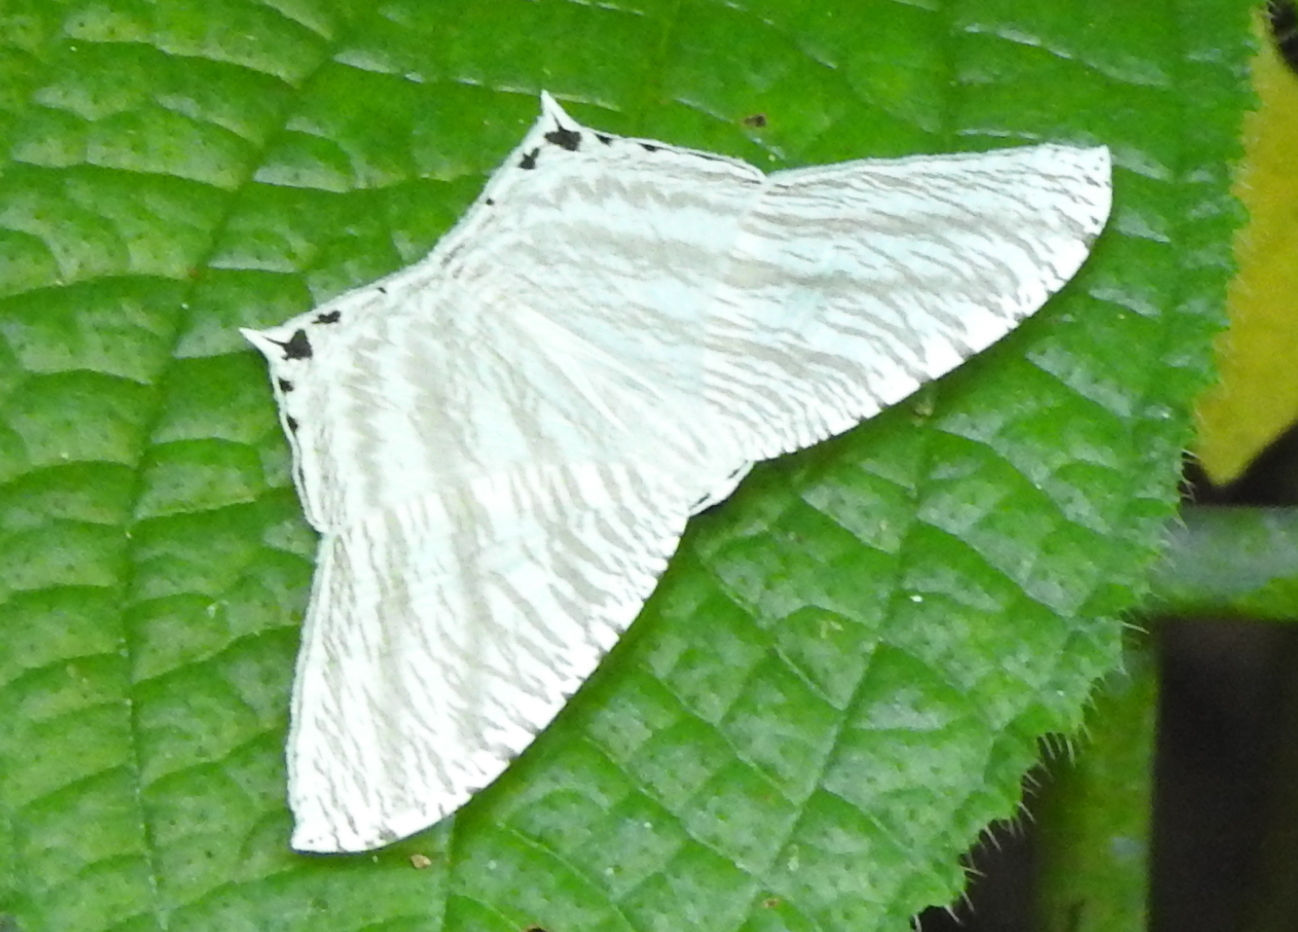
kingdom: Animalia
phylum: Arthropoda
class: Insecta
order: Lepidoptera
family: Uraniidae
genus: Micronia
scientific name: Micronia aculeata
